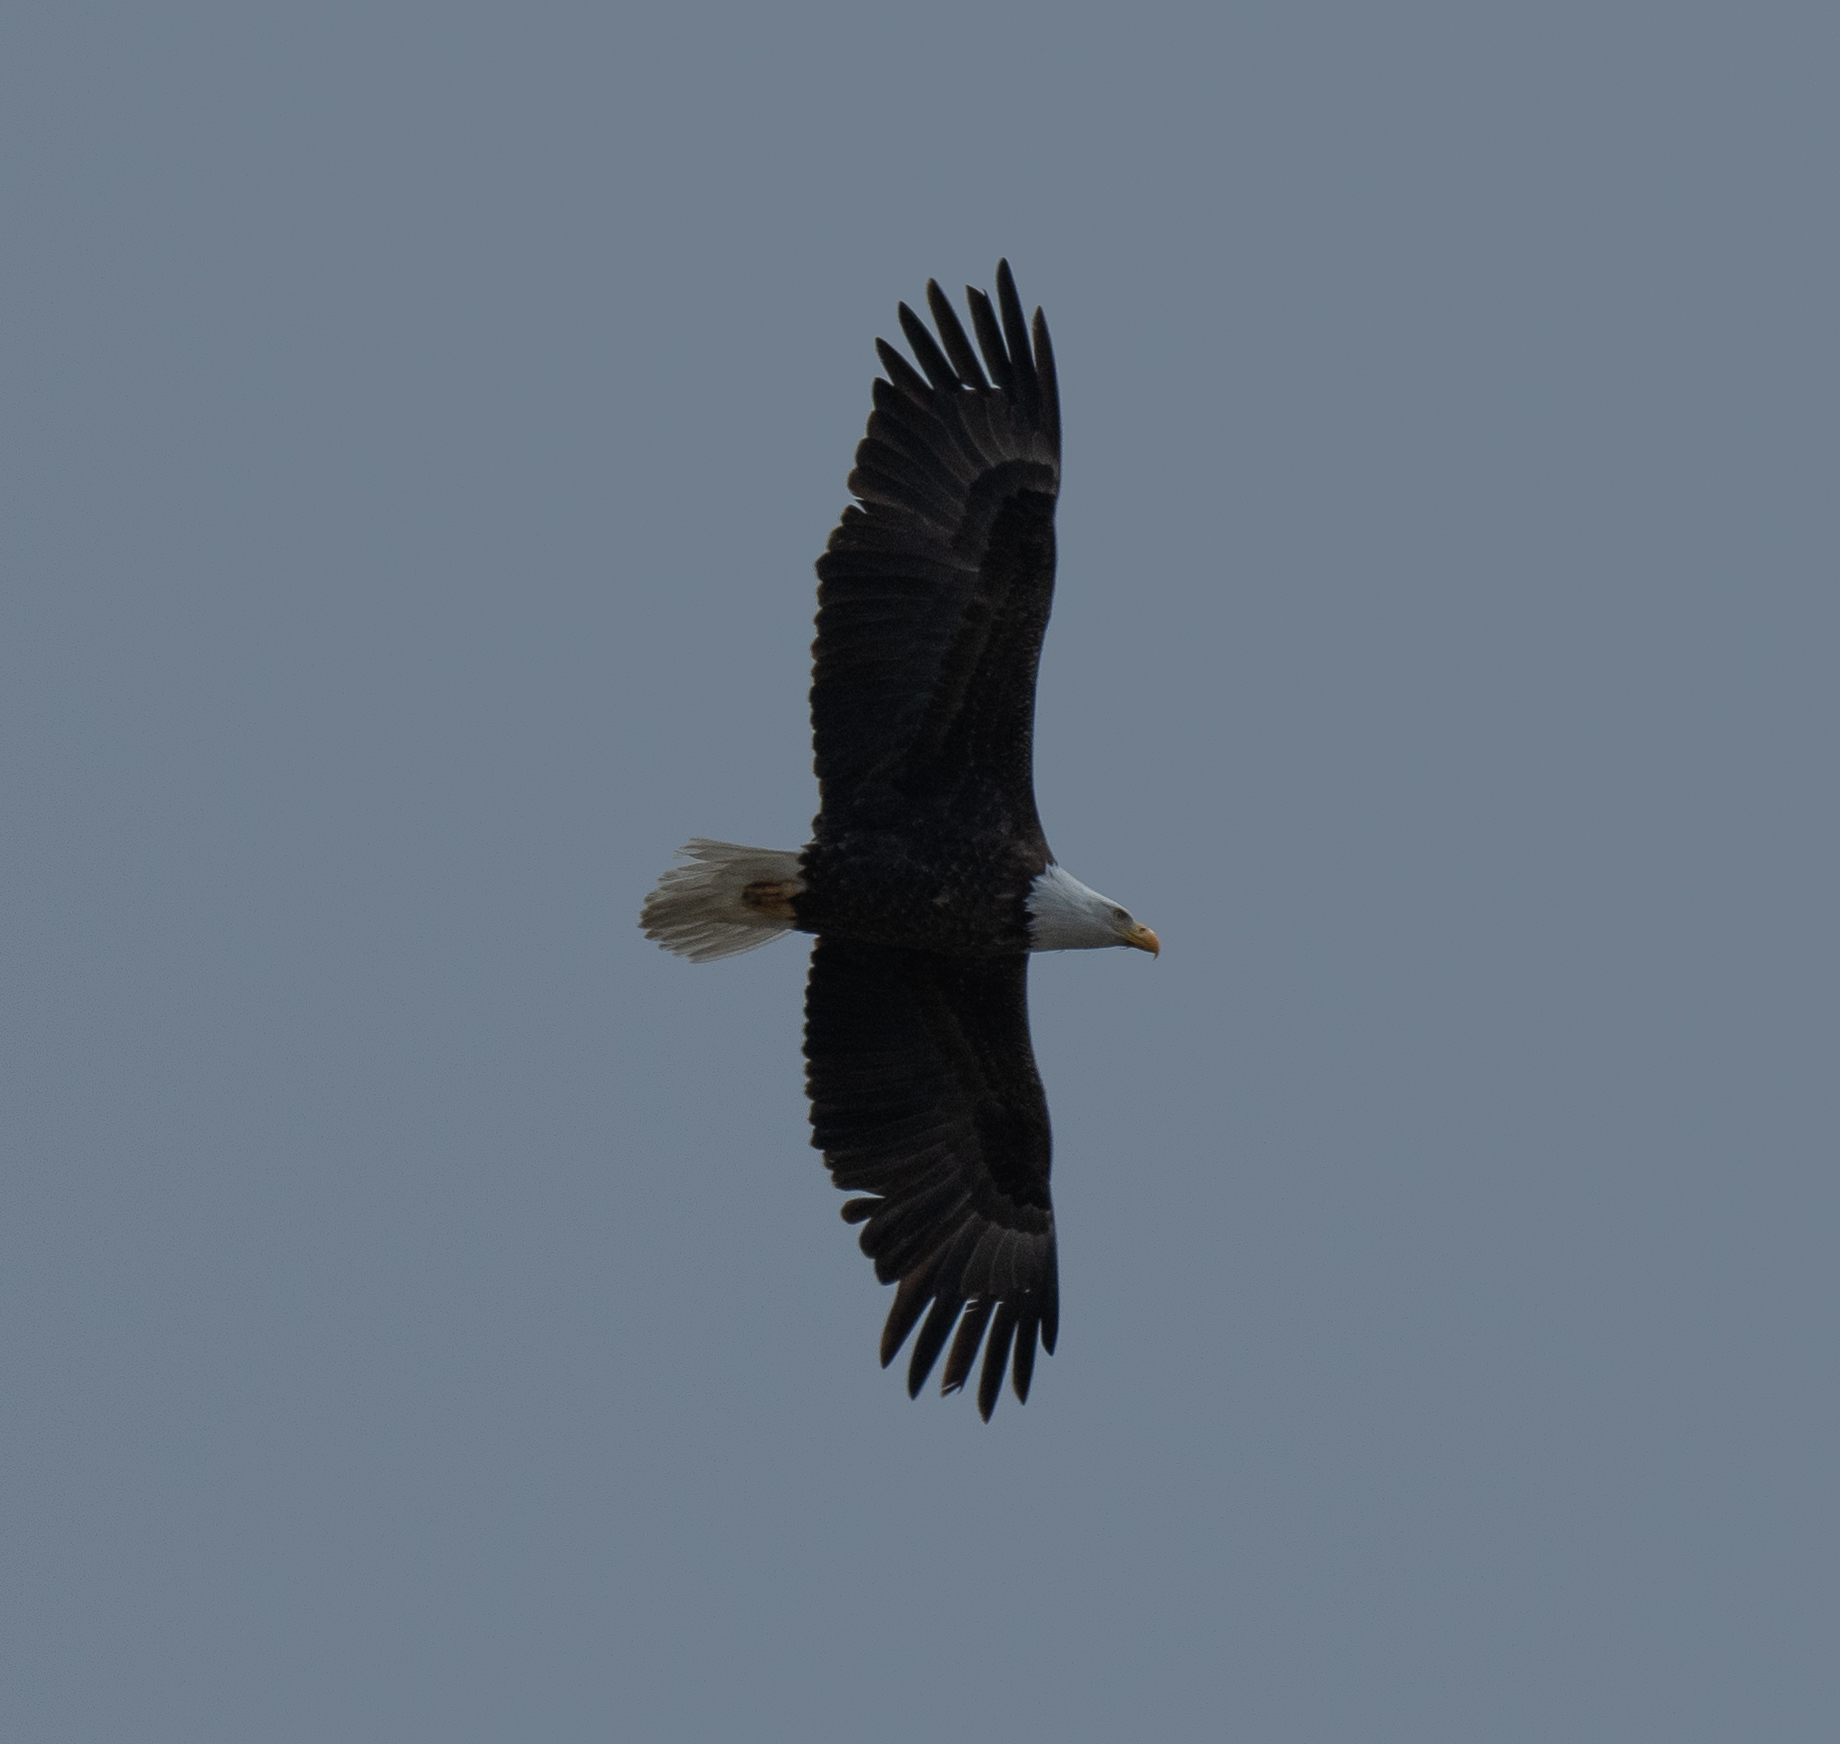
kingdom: Animalia
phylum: Chordata
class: Aves
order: Accipitriformes
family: Accipitridae
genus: Haliaeetus
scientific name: Haliaeetus leucocephalus
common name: Bald eagle
